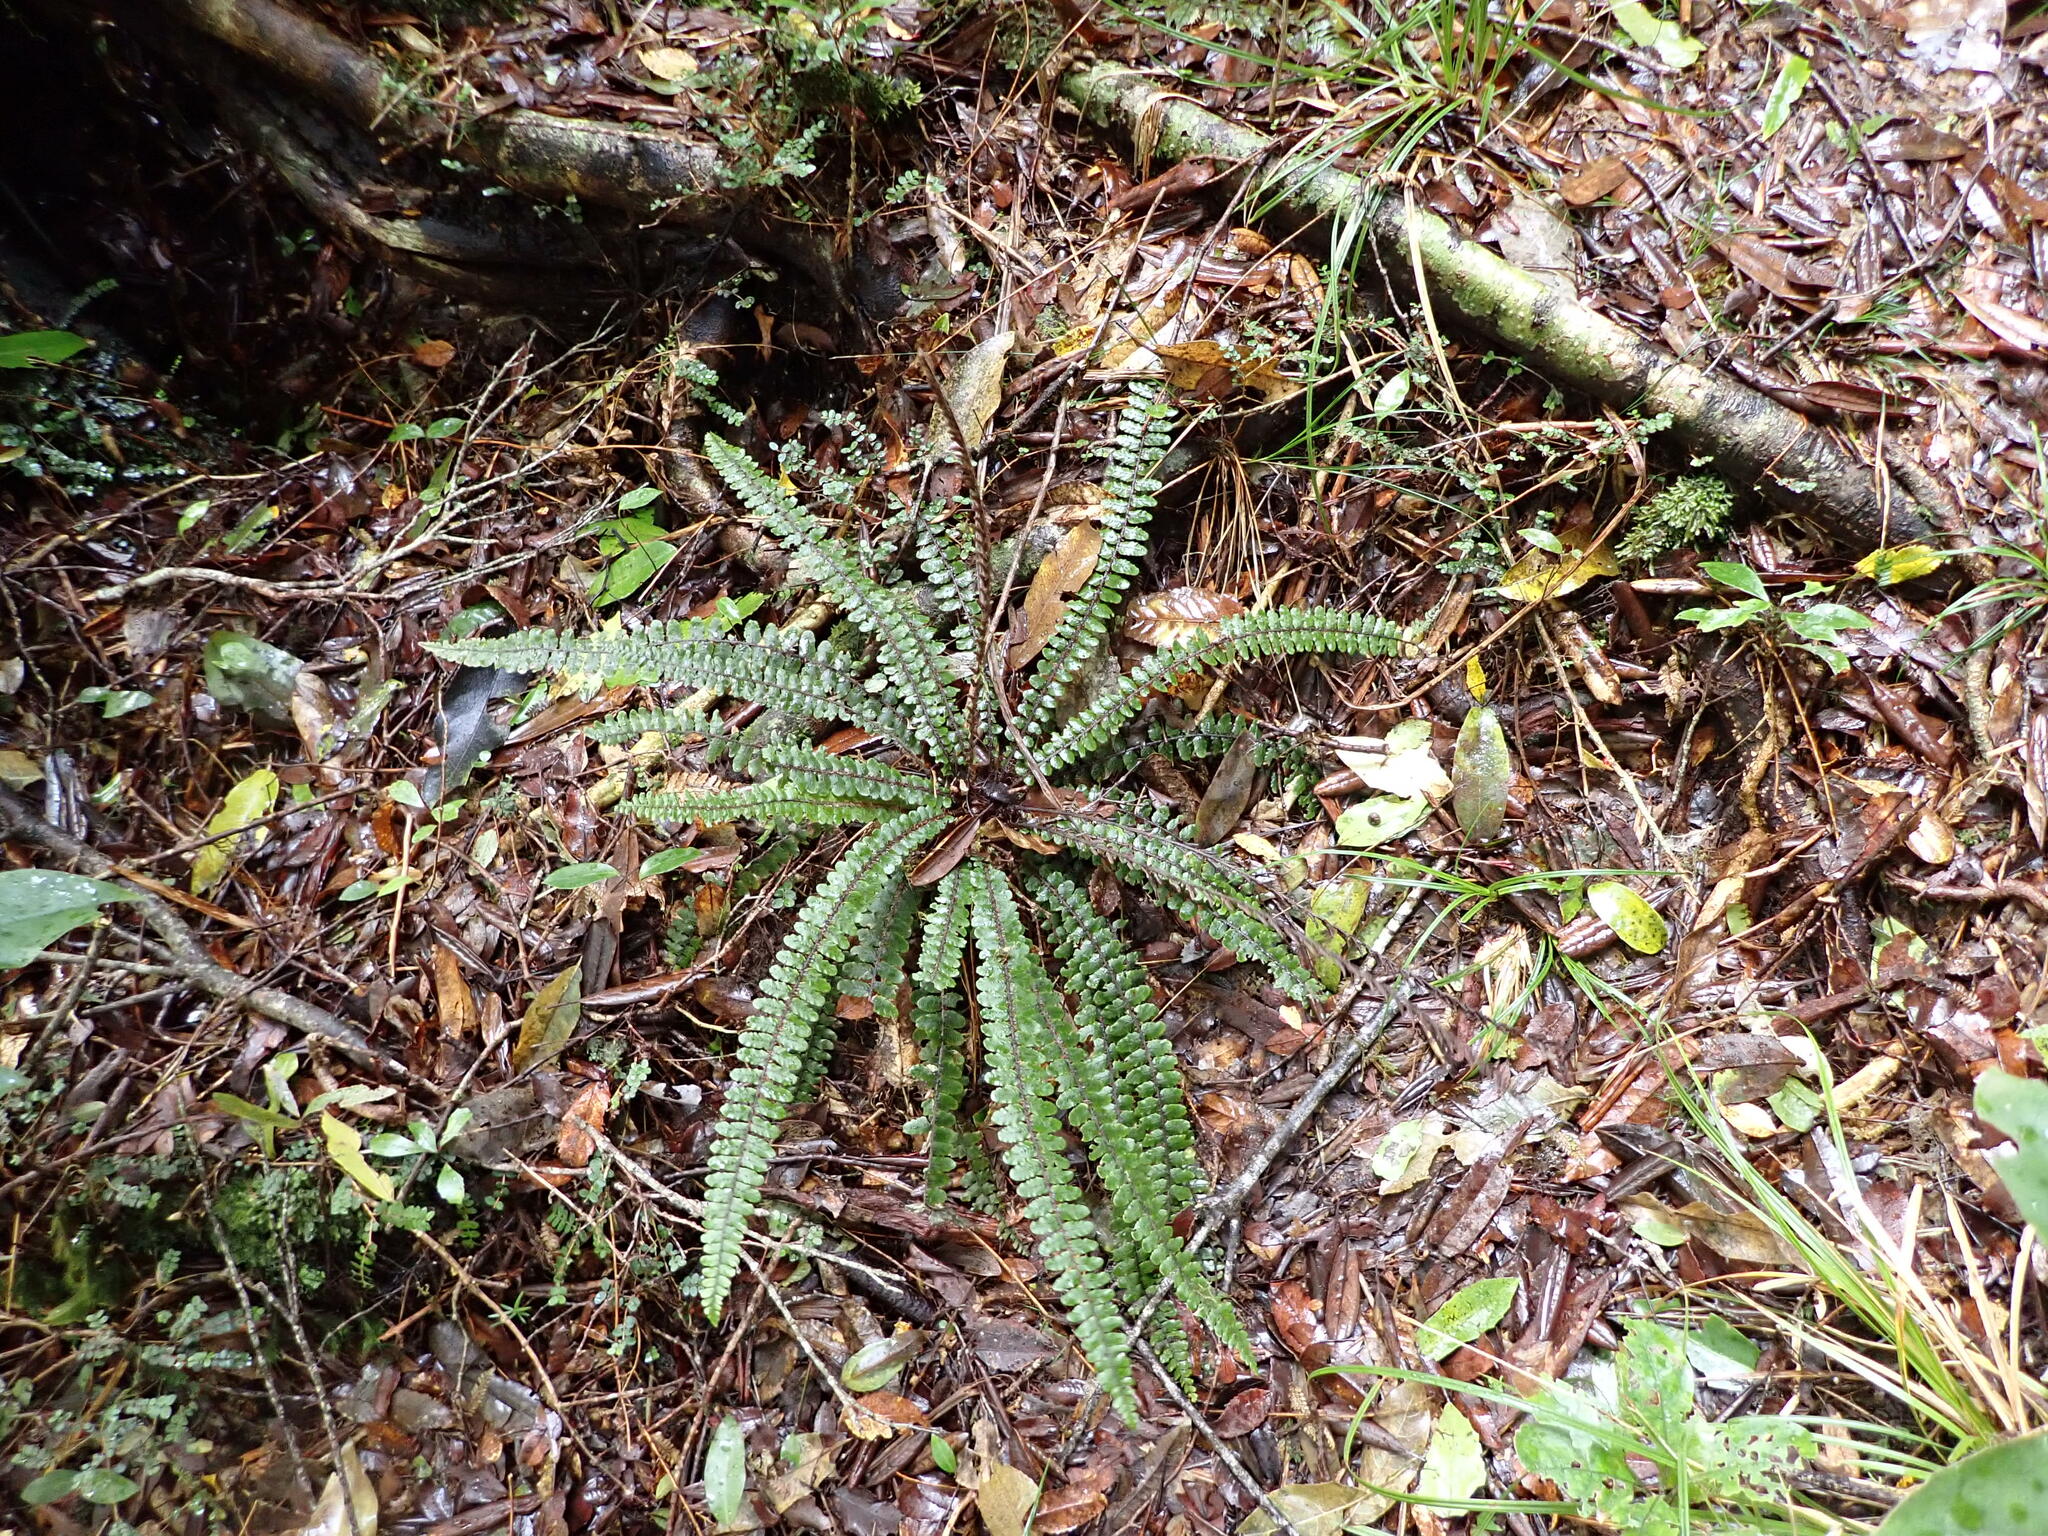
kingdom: Plantae
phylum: Tracheophyta
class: Polypodiopsida
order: Polypodiales
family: Blechnaceae
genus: Cranfillia
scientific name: Cranfillia fluviatilis
